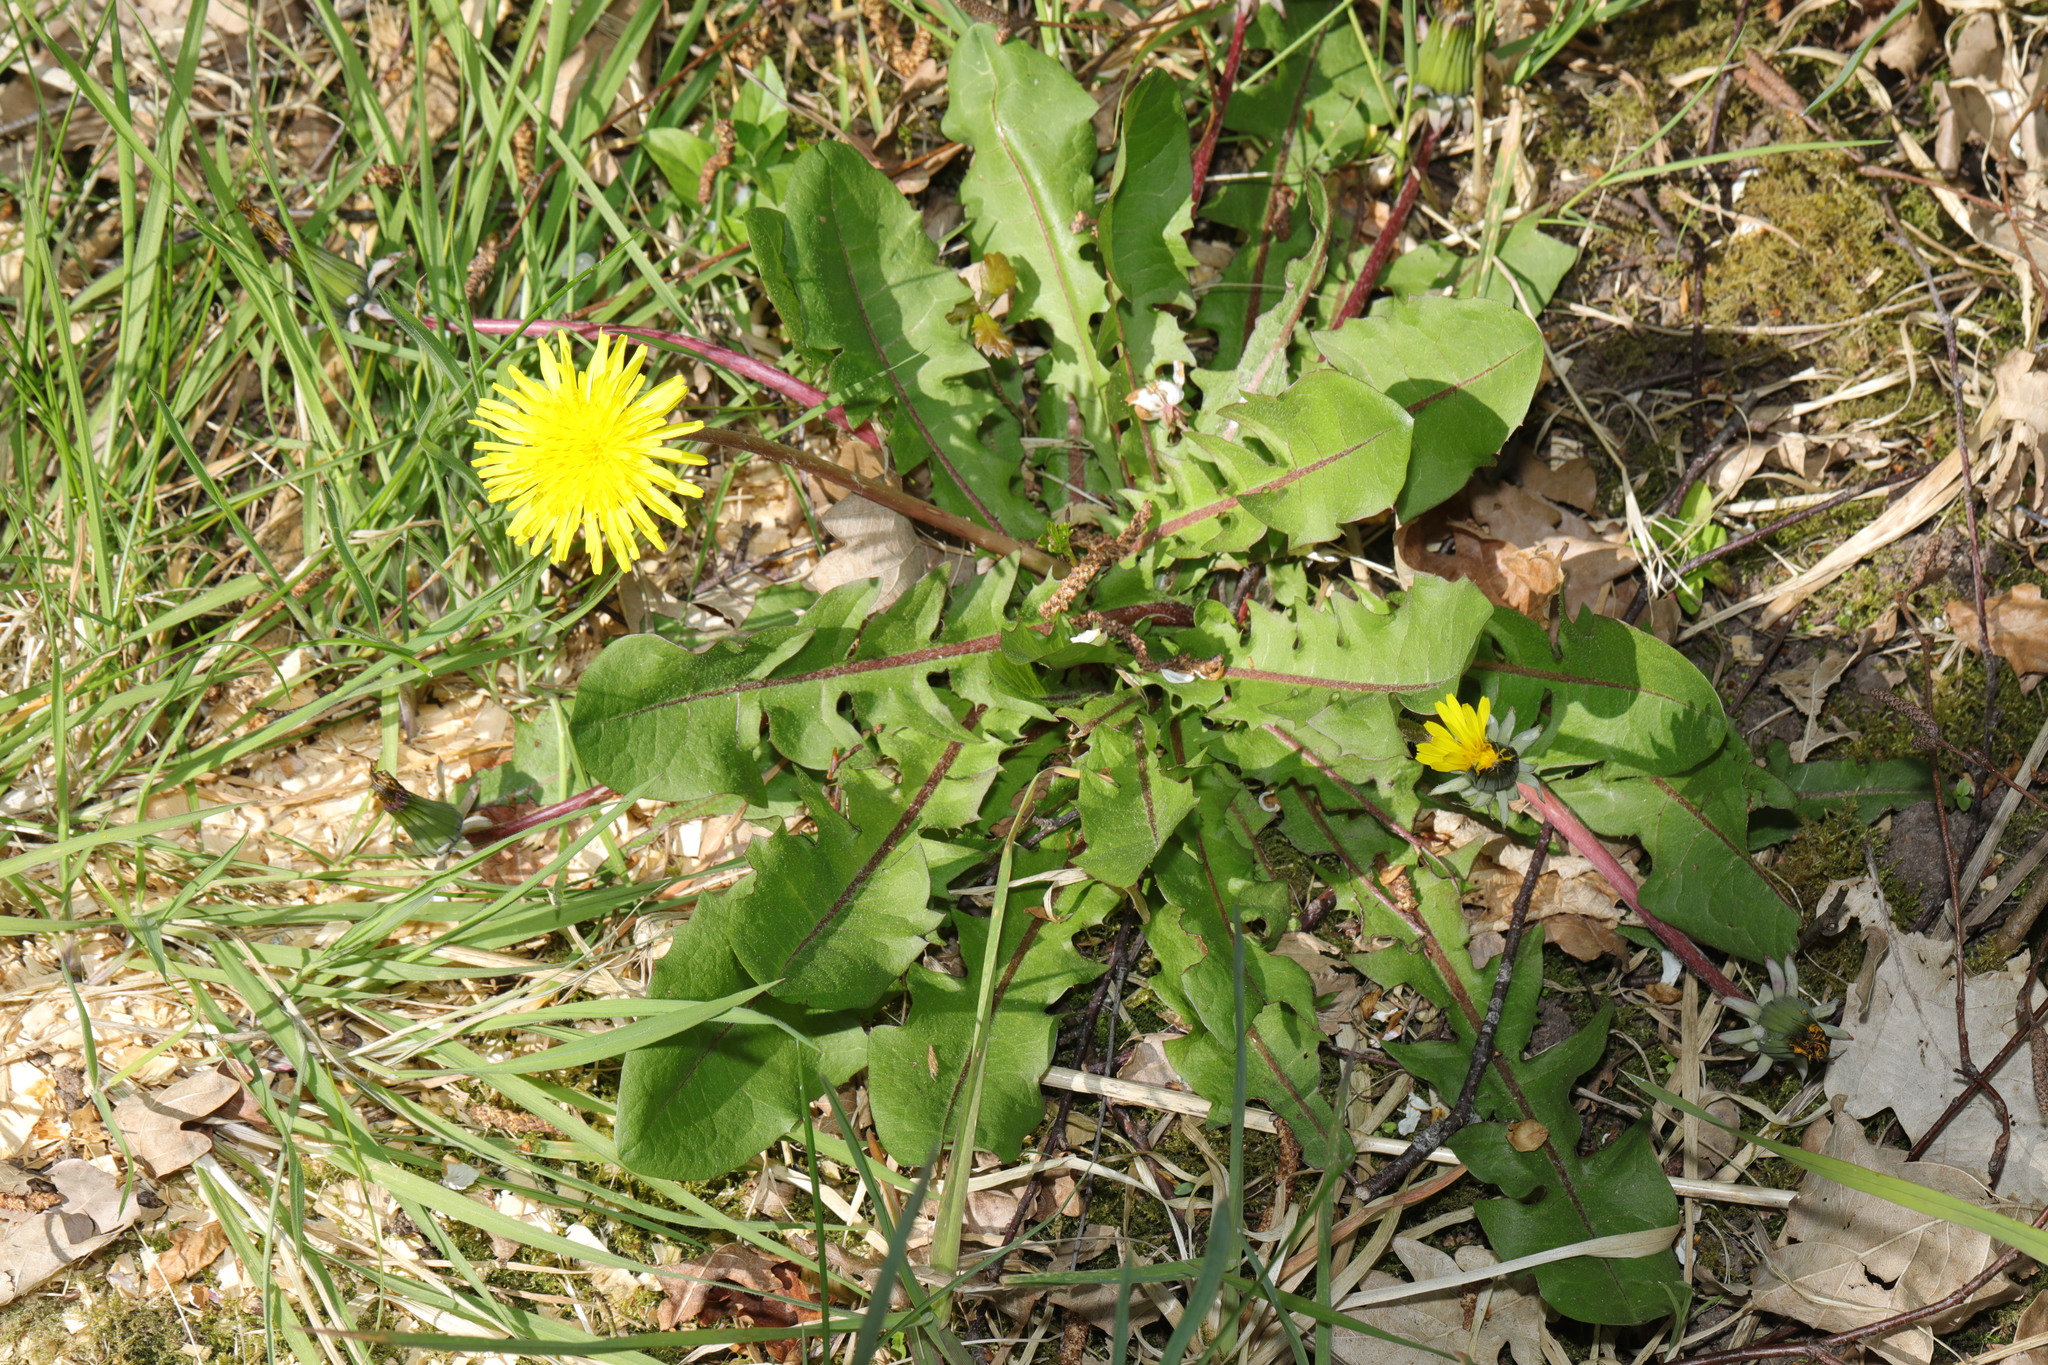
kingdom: Plantae
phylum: Tracheophyta
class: Magnoliopsida
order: Asterales
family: Asteraceae
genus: Taraxacum
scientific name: Taraxacum officinale
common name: Common dandelion
